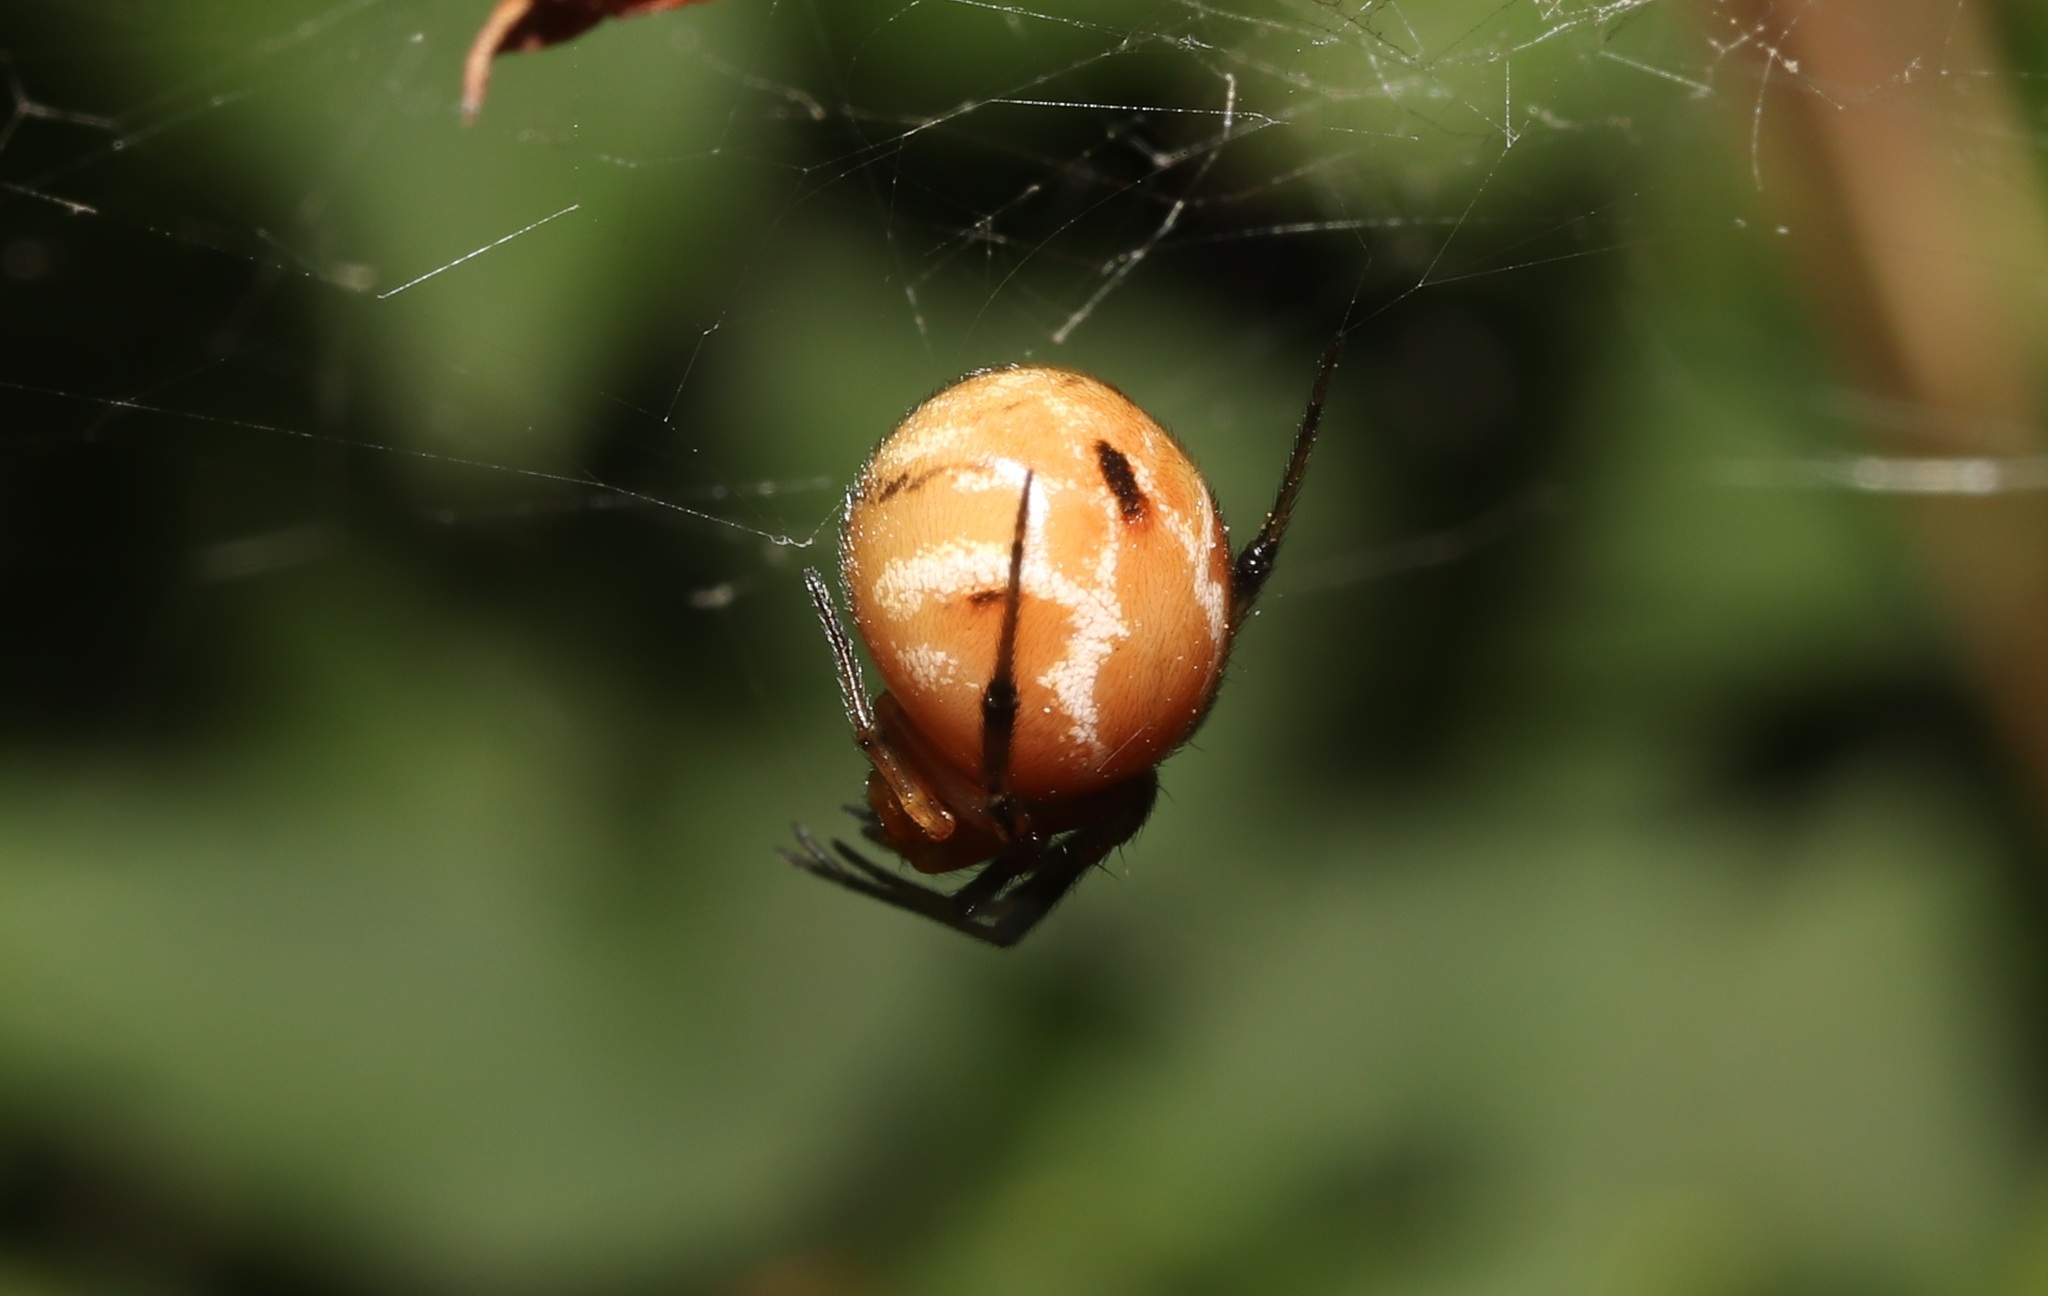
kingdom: Animalia
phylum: Arthropoda
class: Arachnida
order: Araneae
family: Theridiidae
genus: Nihonhimea
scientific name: Nihonhimea japonica
